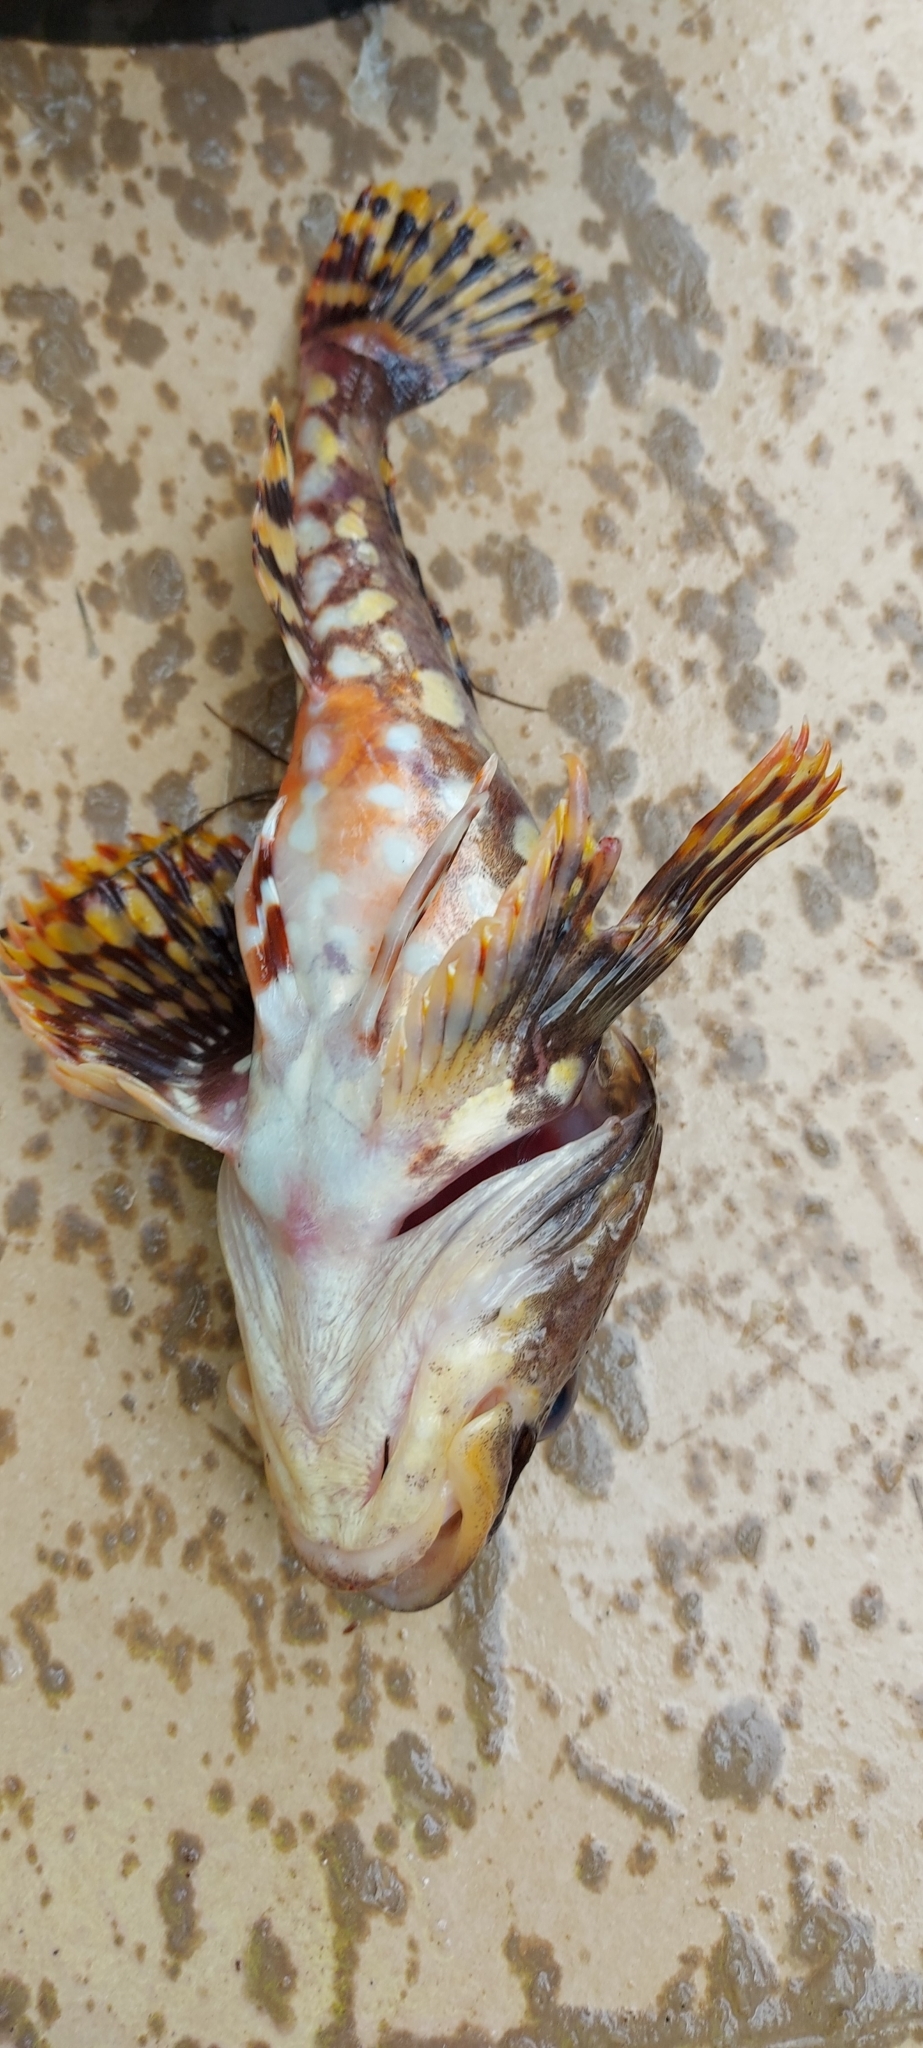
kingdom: Animalia
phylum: Chordata
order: Scorpaeniformes
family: Cottidae
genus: Myoxocephalus
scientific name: Myoxocephalus scorpius
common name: Shorthorn sculpin
